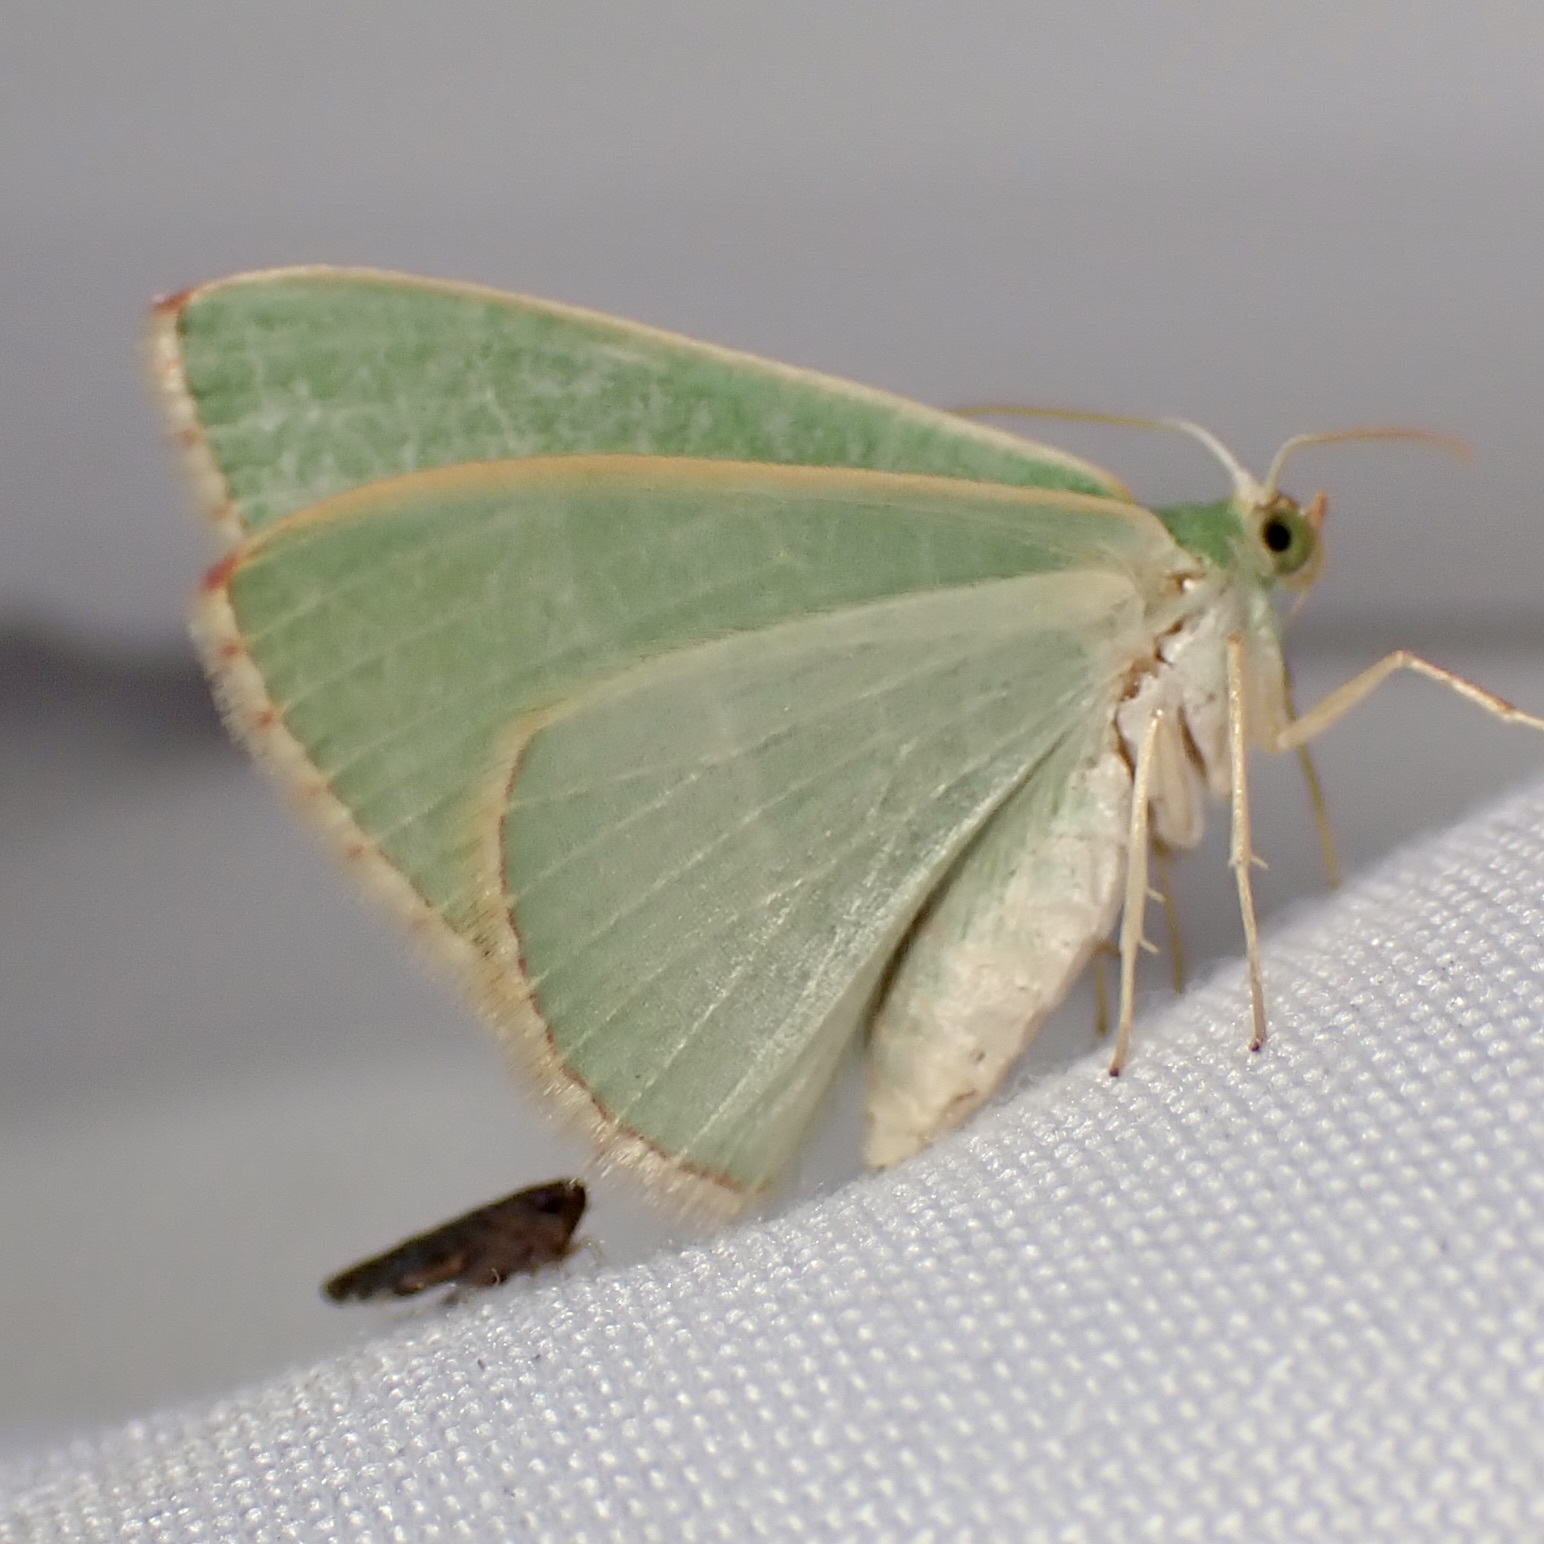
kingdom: Animalia
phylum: Arthropoda
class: Insecta
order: Lepidoptera
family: Geometridae
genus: Nemoria
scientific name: Nemoria festaria
